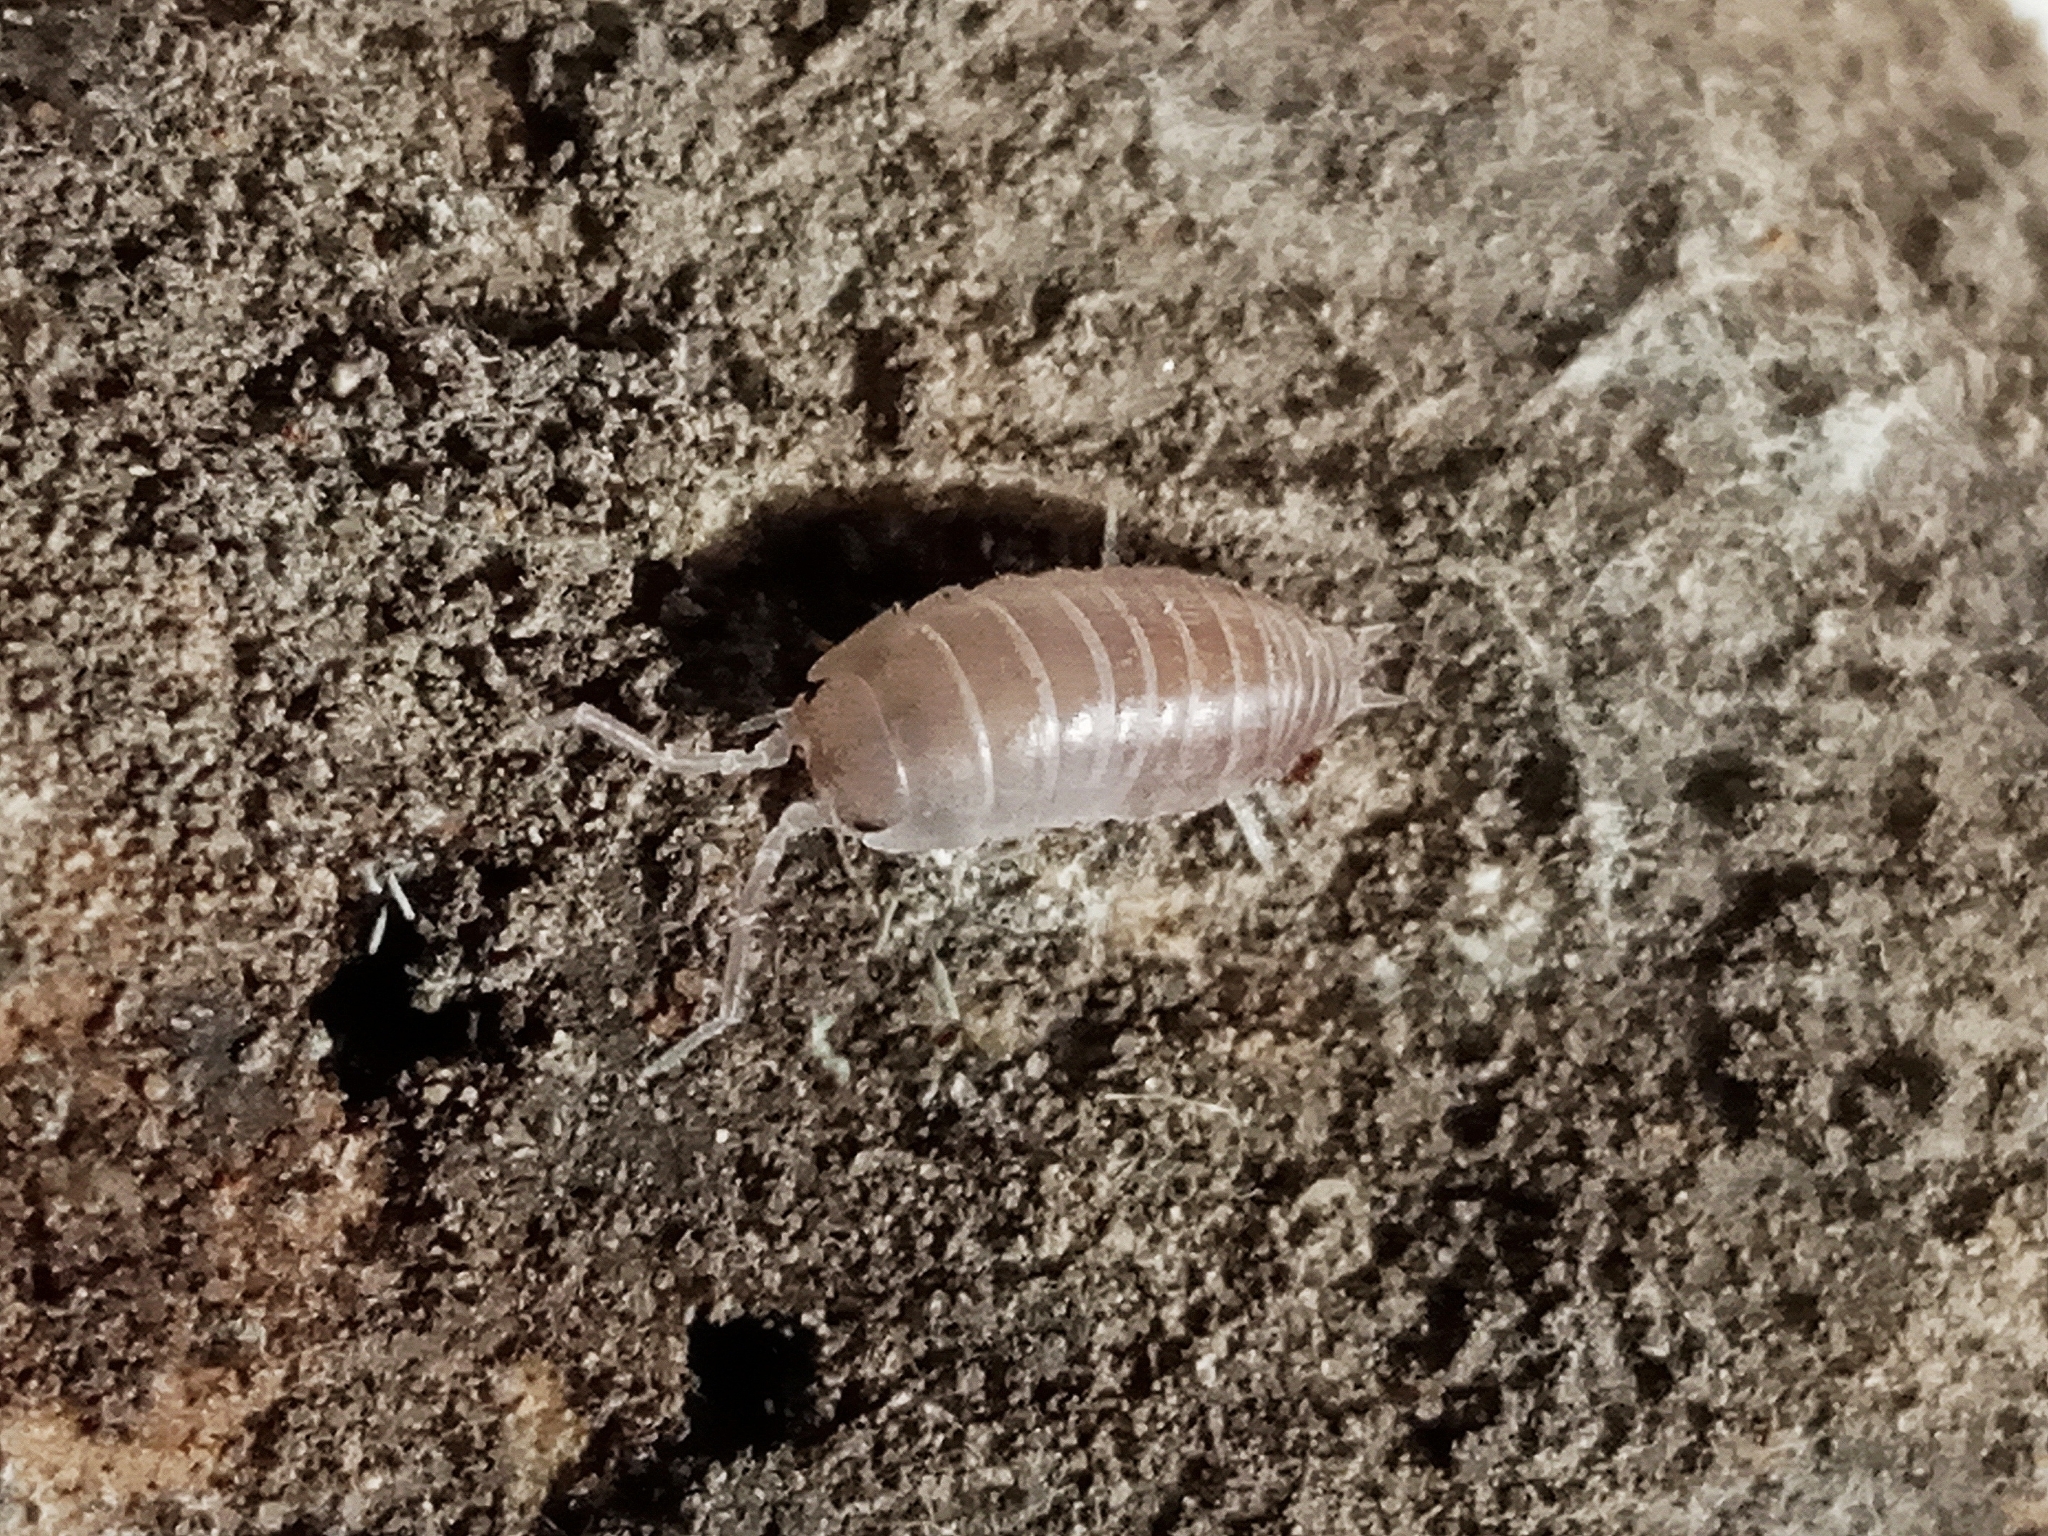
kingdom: Animalia
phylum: Arthropoda
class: Malacostraca
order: Isopoda
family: Cylisticidae
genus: Cylisticus
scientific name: Cylisticus
